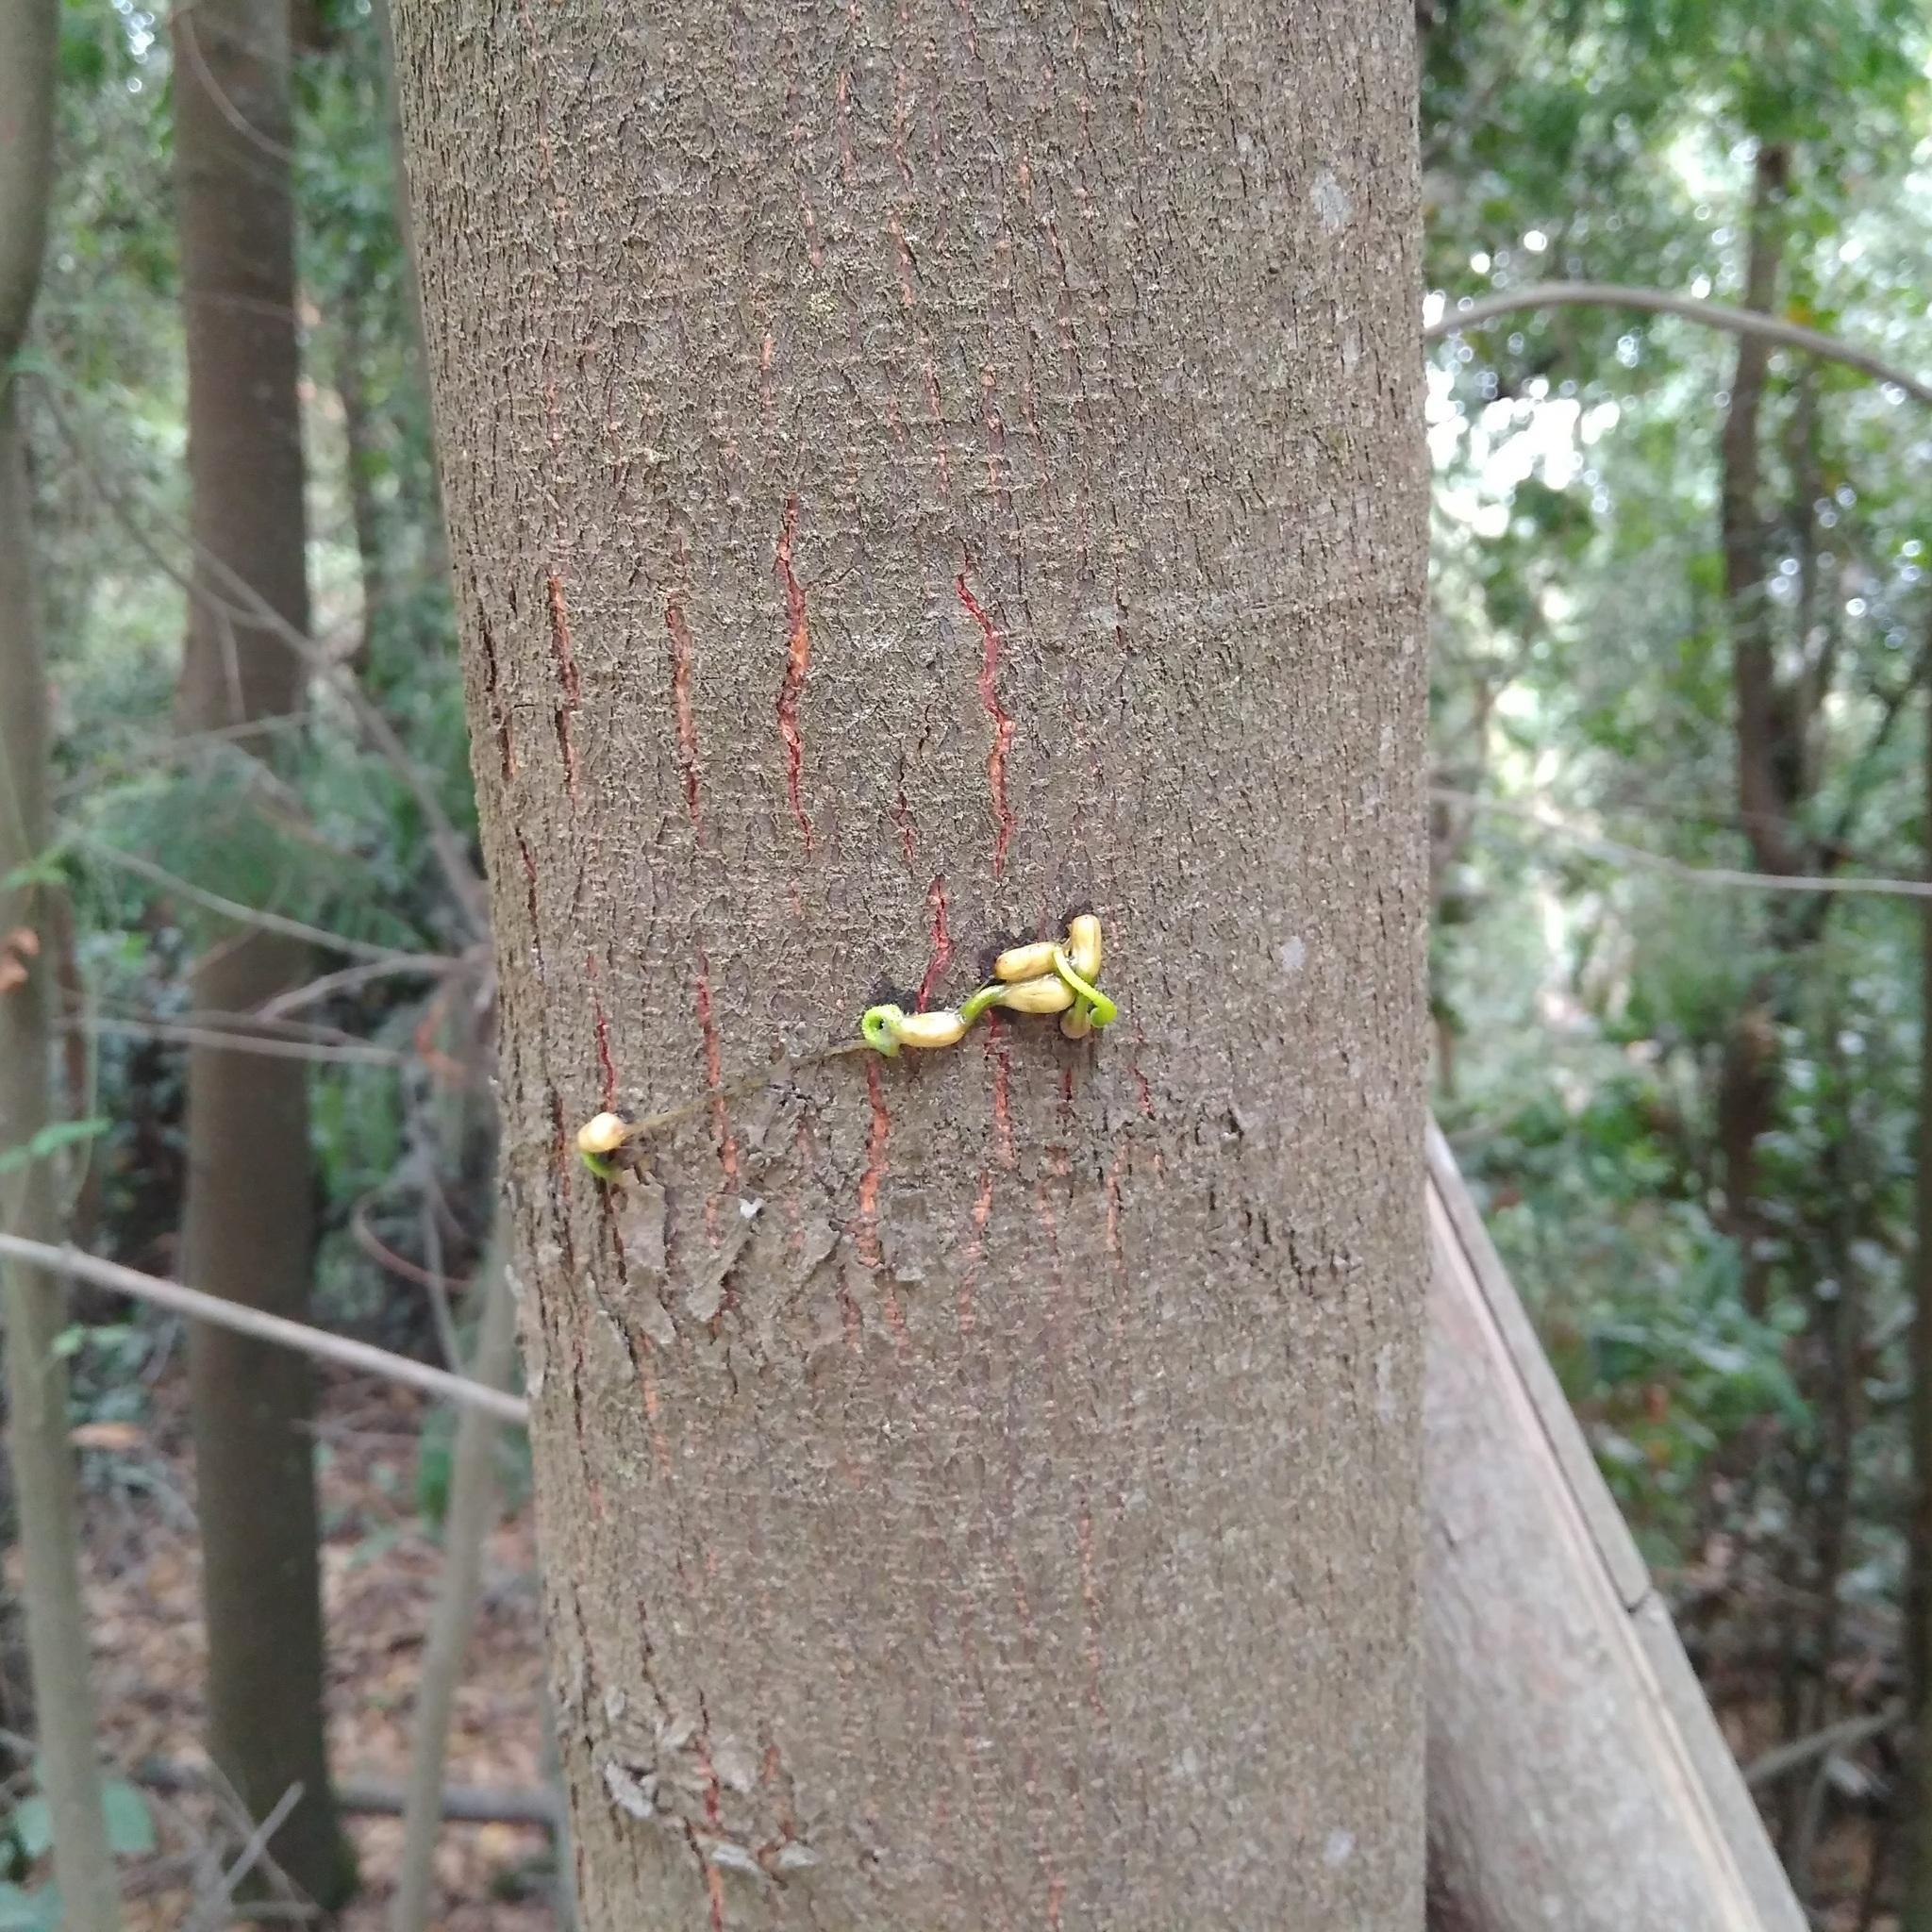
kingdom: Plantae
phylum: Tracheophyta
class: Magnoliopsida
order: Santalales
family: Loranthaceae
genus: Tristerix
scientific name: Tristerix corymbosus
